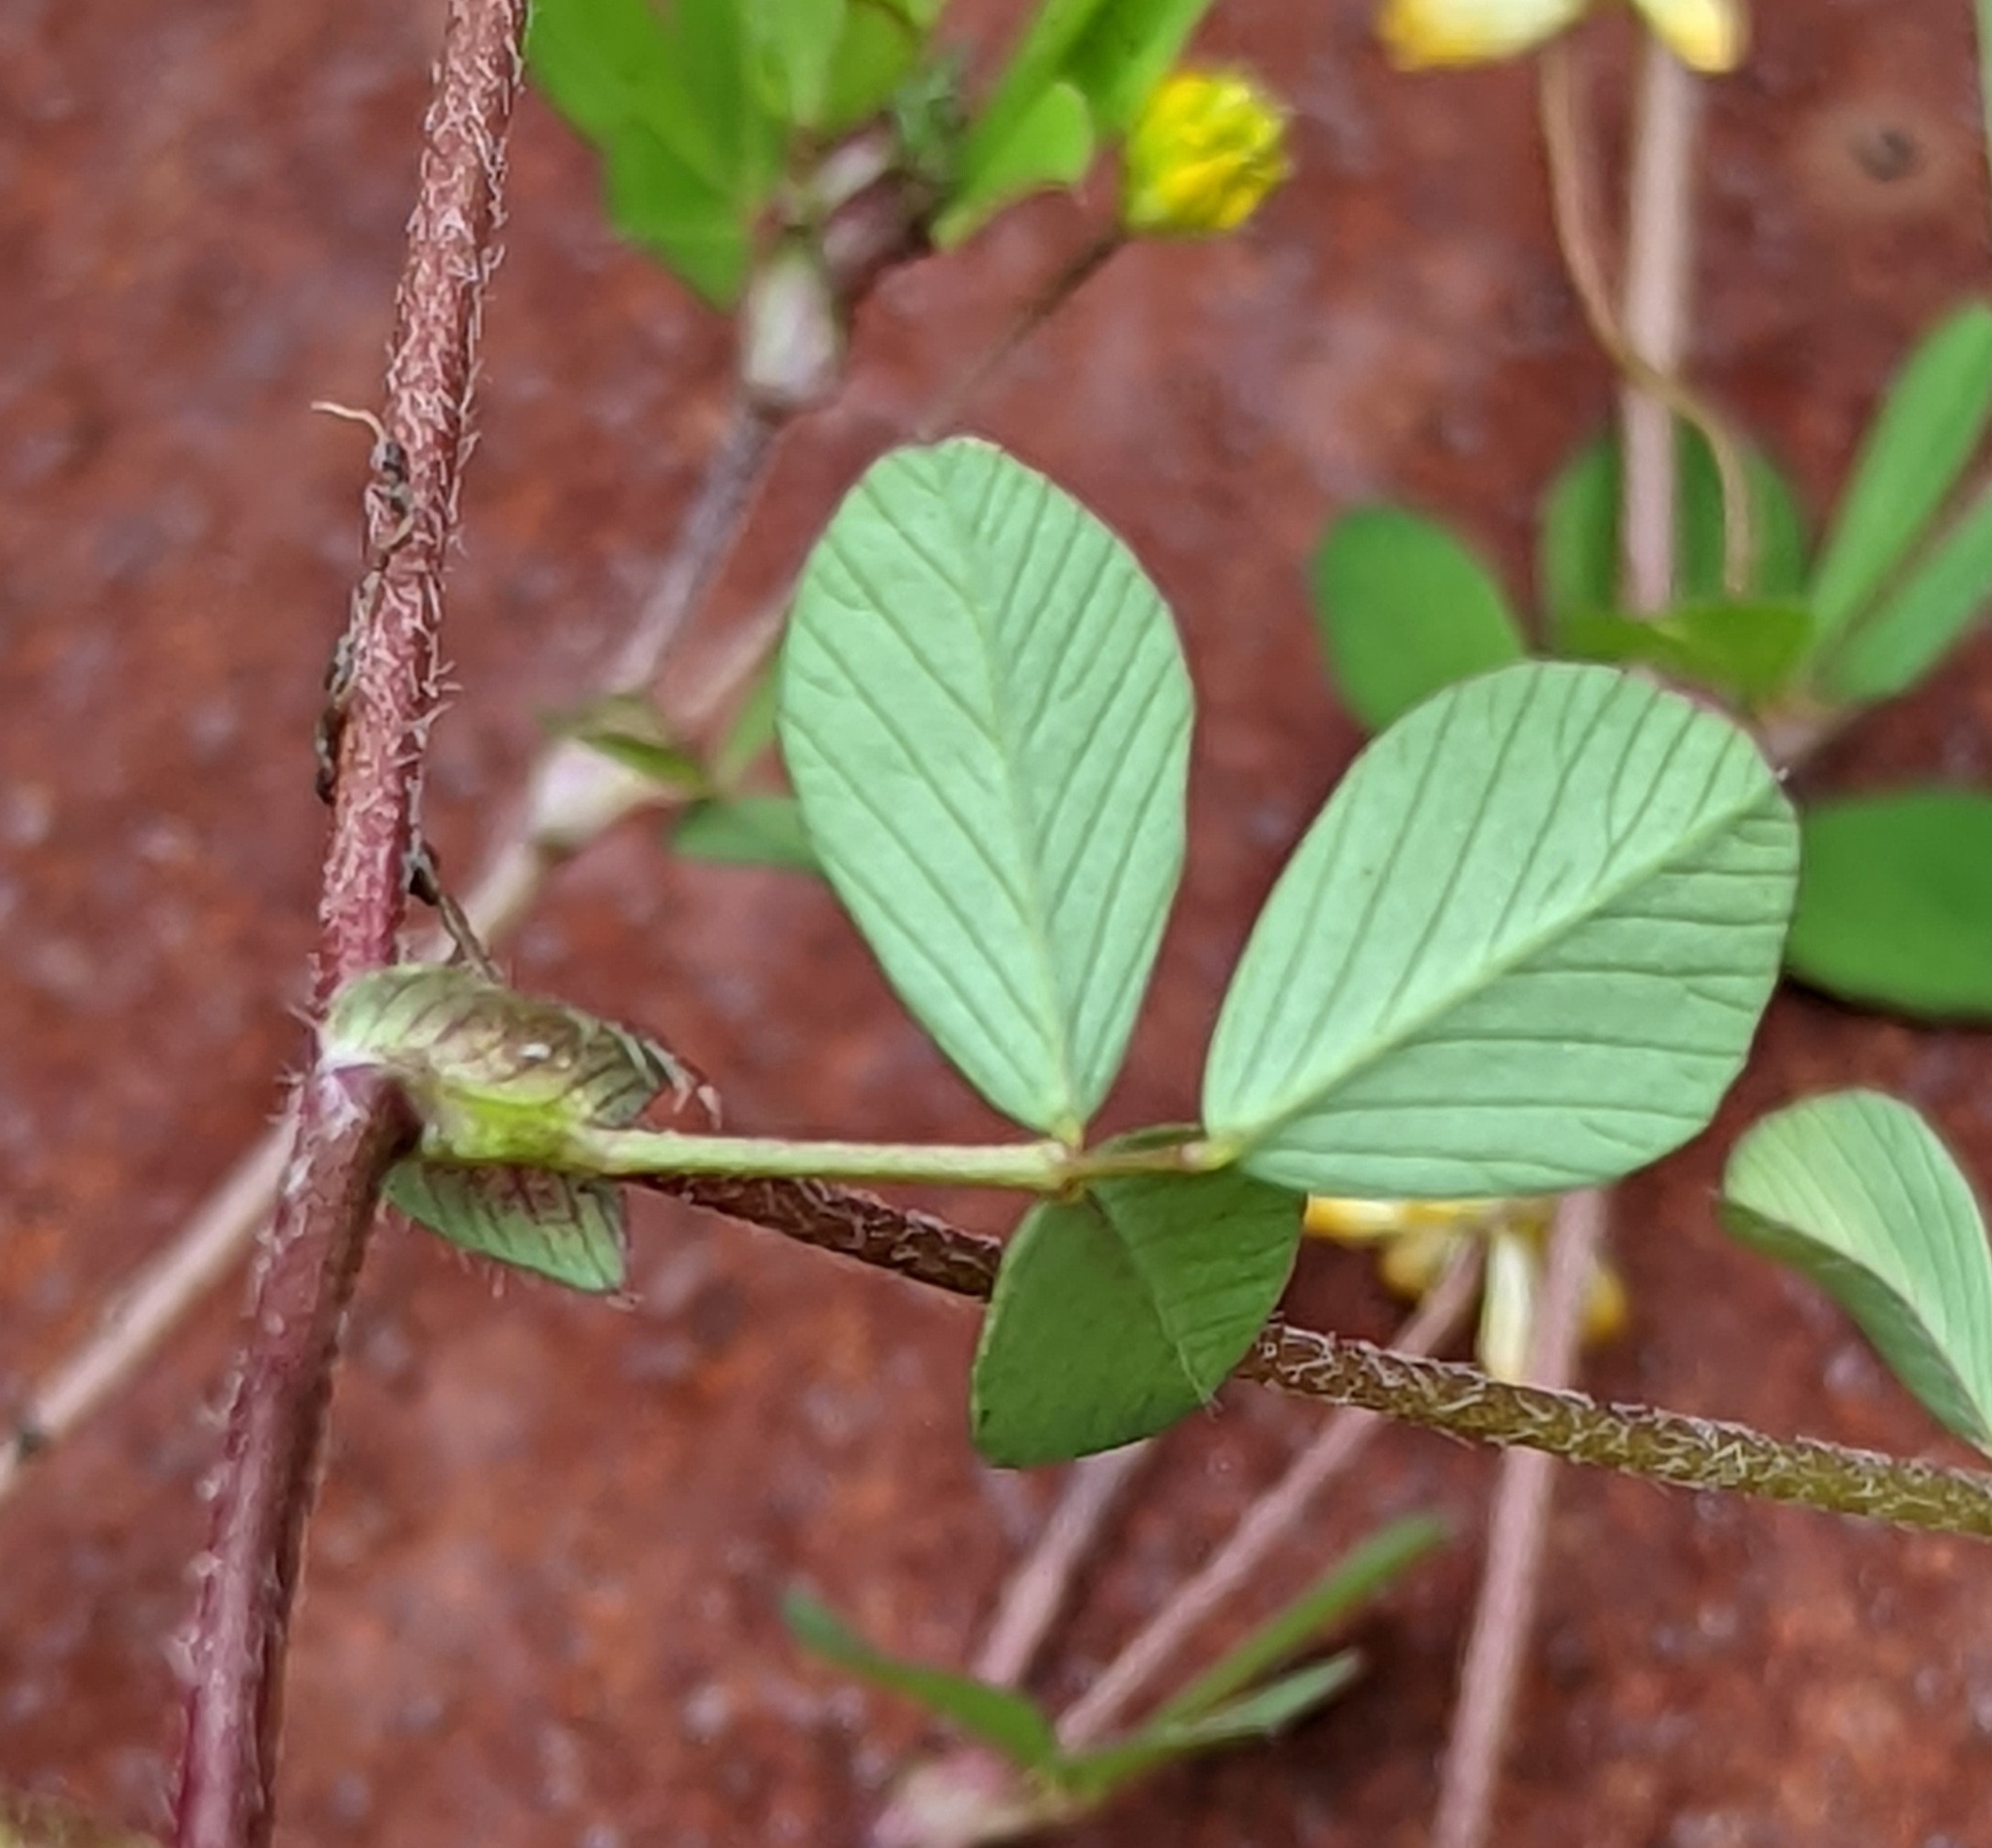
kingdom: Plantae
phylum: Tracheophyta
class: Magnoliopsida
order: Fabales
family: Fabaceae
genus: Trifolium
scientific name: Trifolium dubium
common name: Suckling clover
